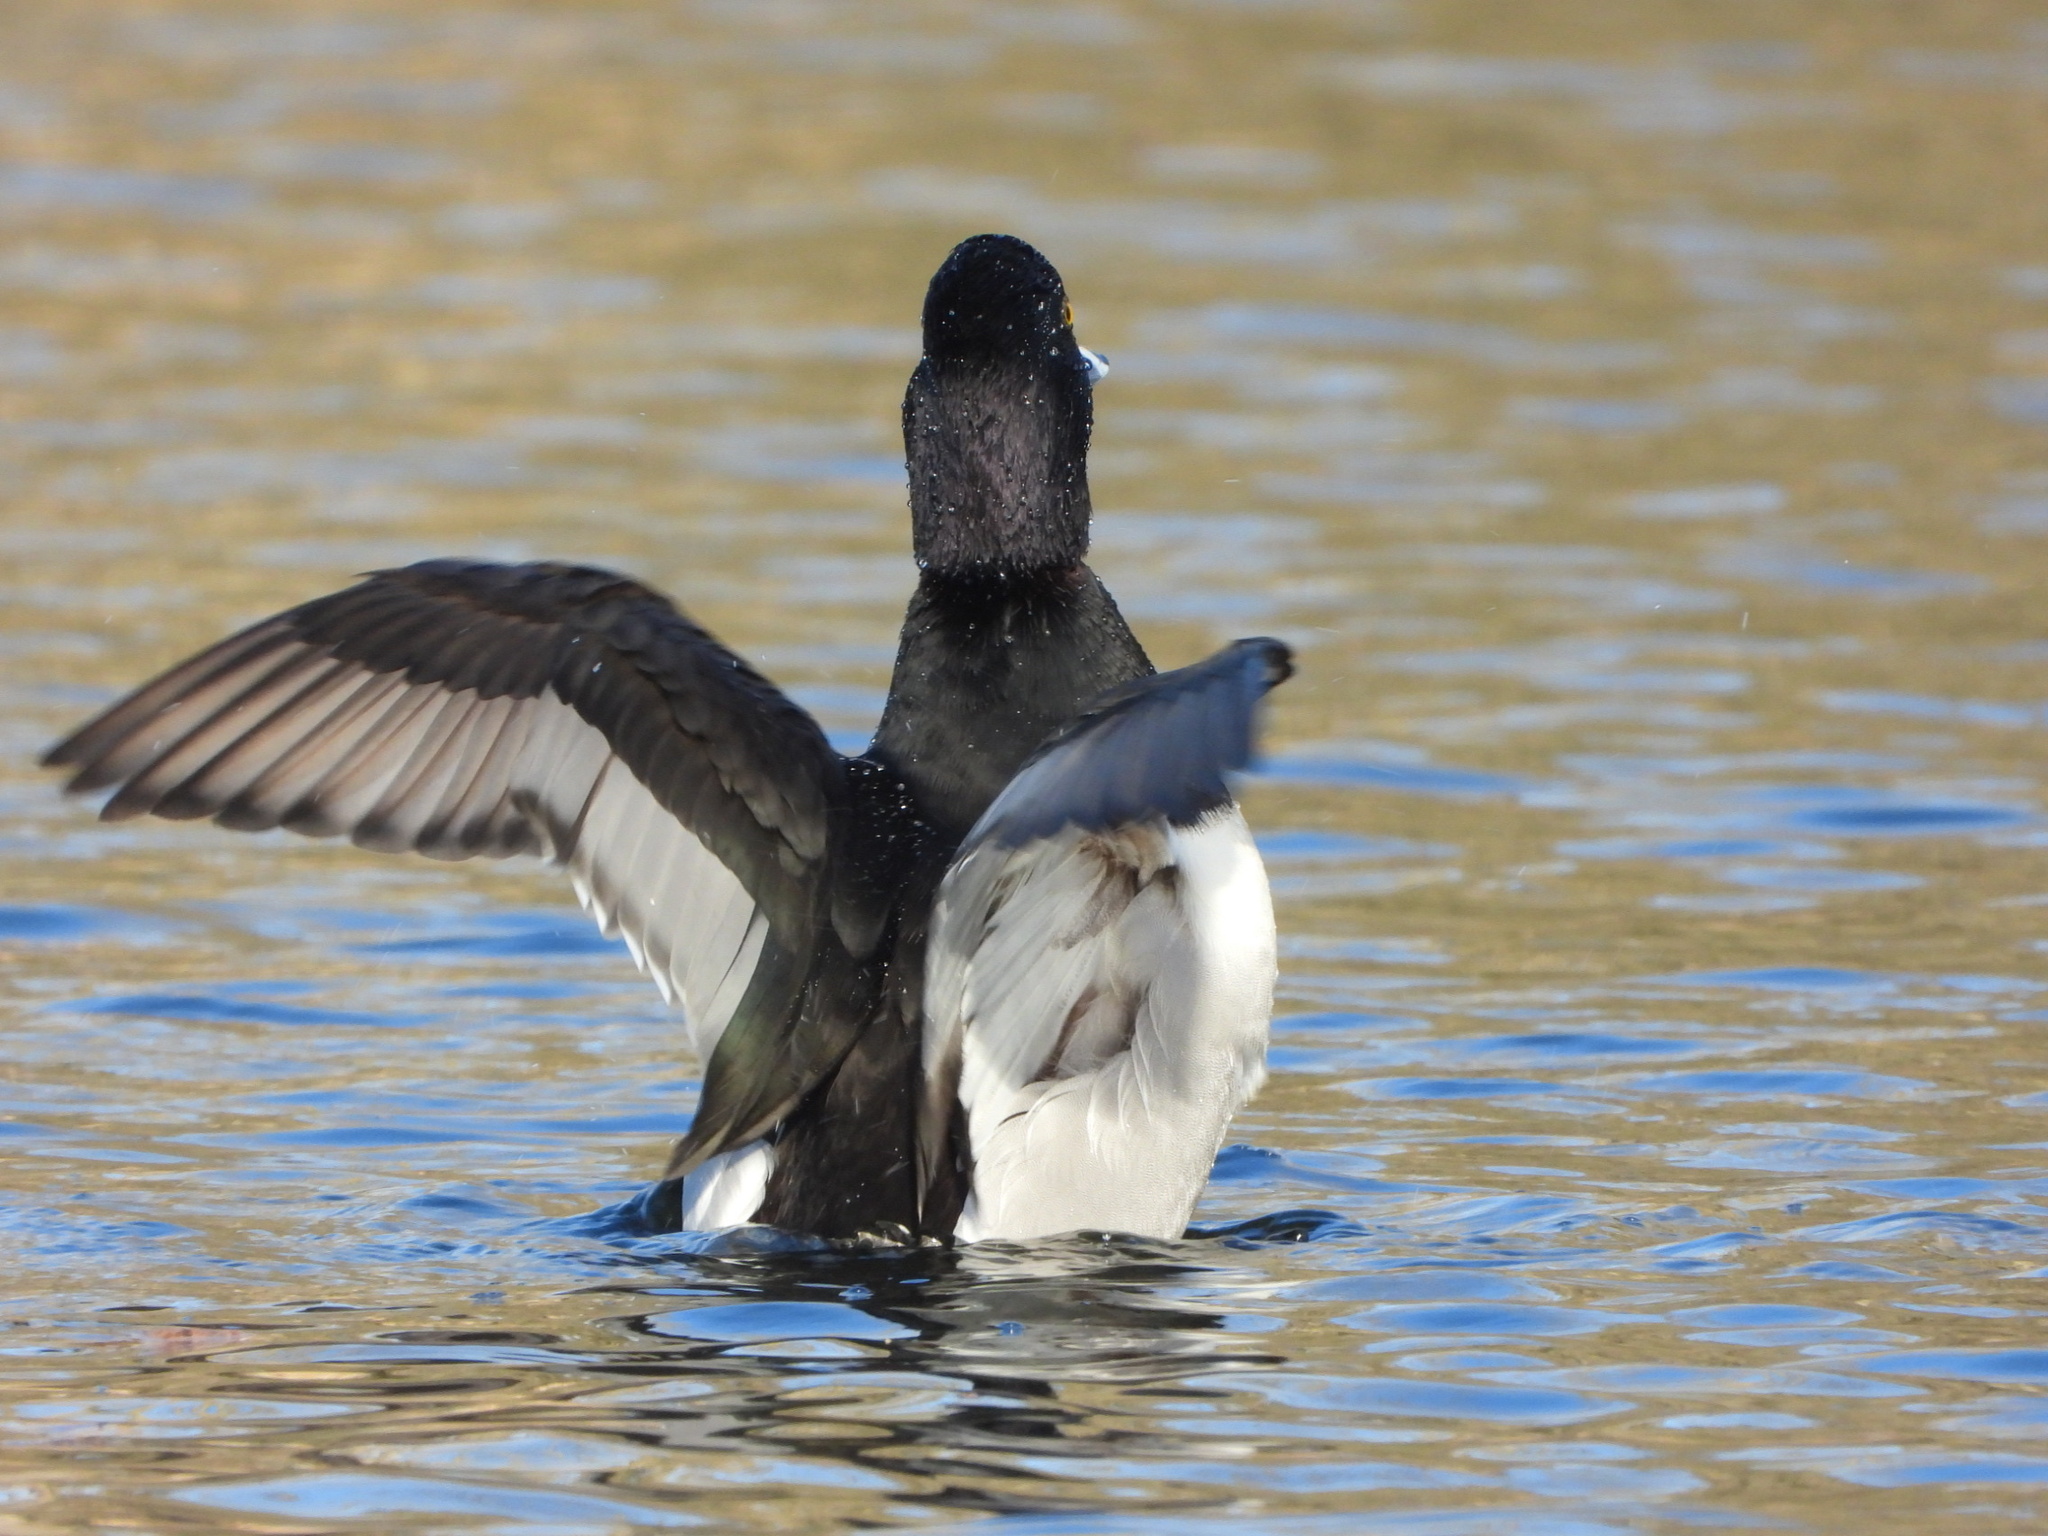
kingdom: Animalia
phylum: Chordata
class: Aves
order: Anseriformes
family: Anatidae
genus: Aythya
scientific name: Aythya collaris
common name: Ring-necked duck
